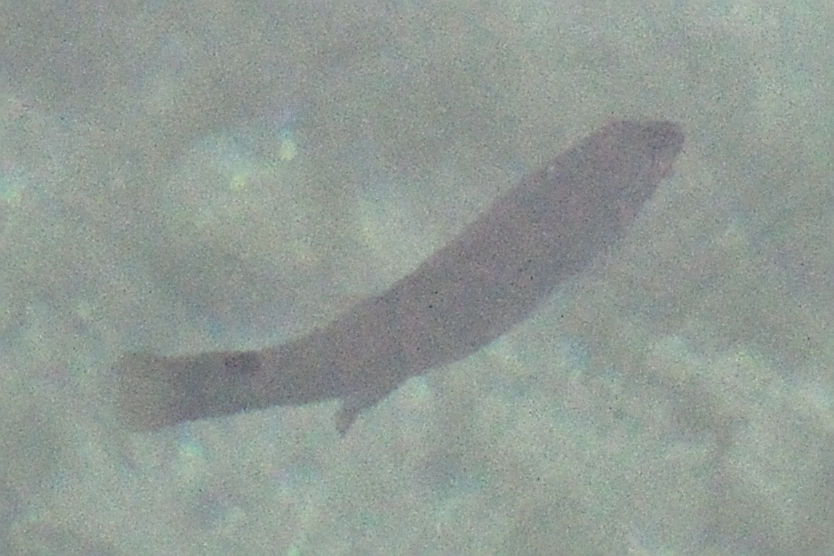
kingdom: Animalia
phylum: Chordata
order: Perciformes
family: Labridae
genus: Ctenolabrus
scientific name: Ctenolabrus rupestris
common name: Goldsinny
